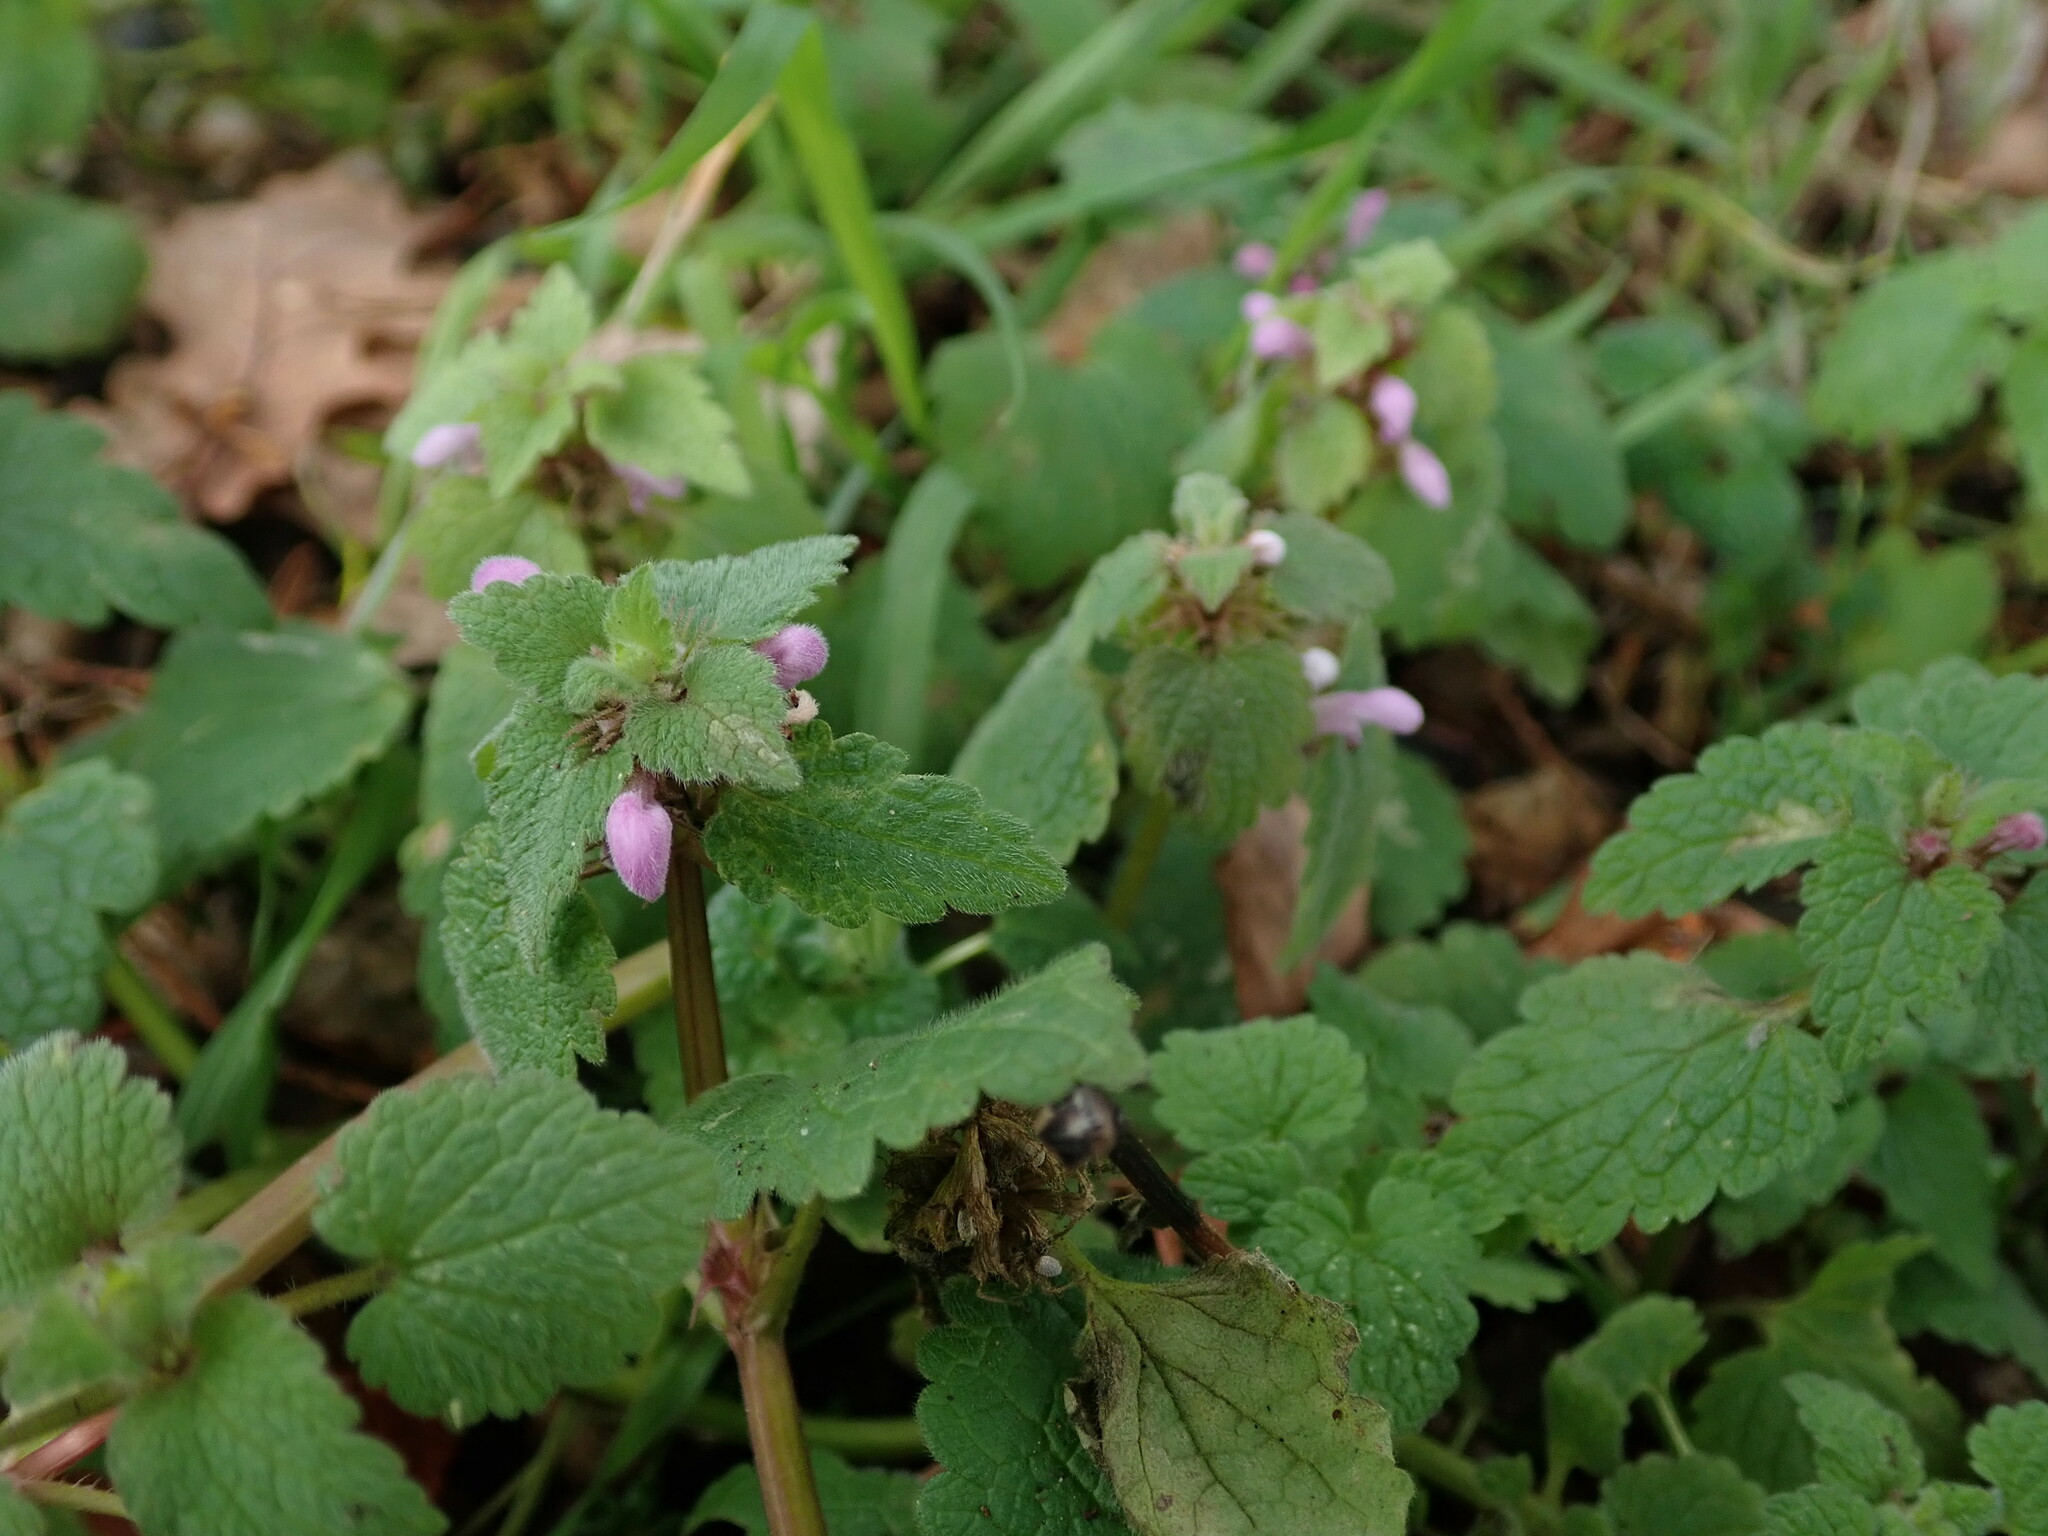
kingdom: Plantae
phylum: Tracheophyta
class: Magnoliopsida
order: Lamiales
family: Lamiaceae
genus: Lamium
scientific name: Lamium purpureum
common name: Red dead-nettle
